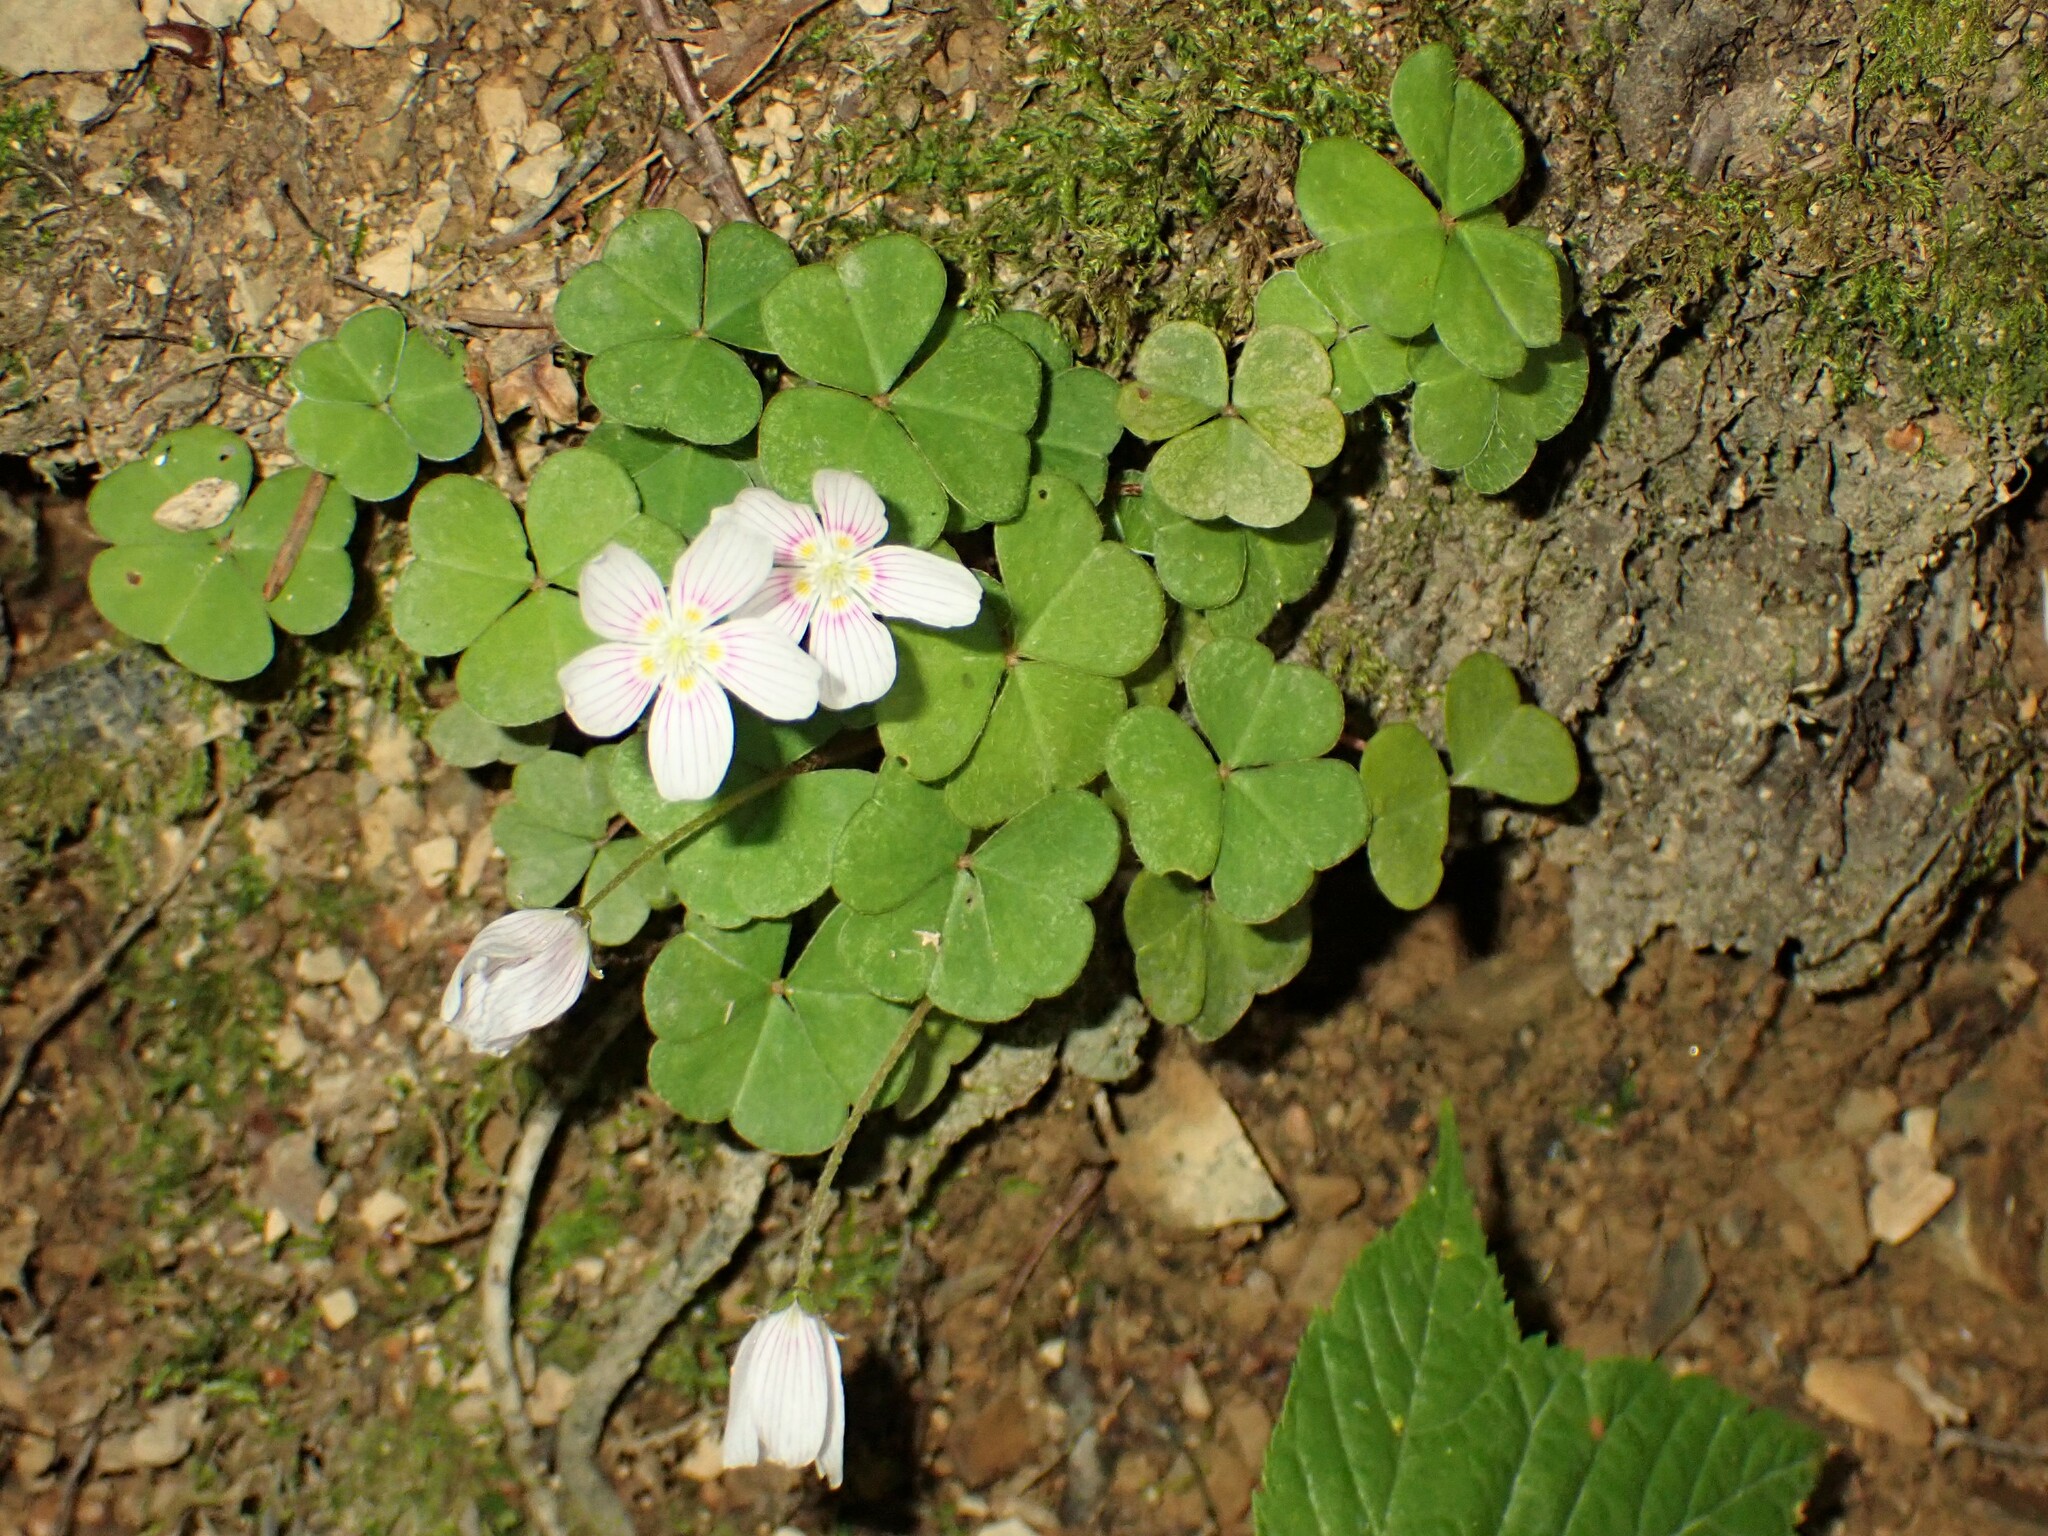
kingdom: Plantae
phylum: Tracheophyta
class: Magnoliopsida
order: Oxalidales
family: Oxalidaceae
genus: Oxalis
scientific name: Oxalis montana
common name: American wood-sorrel
